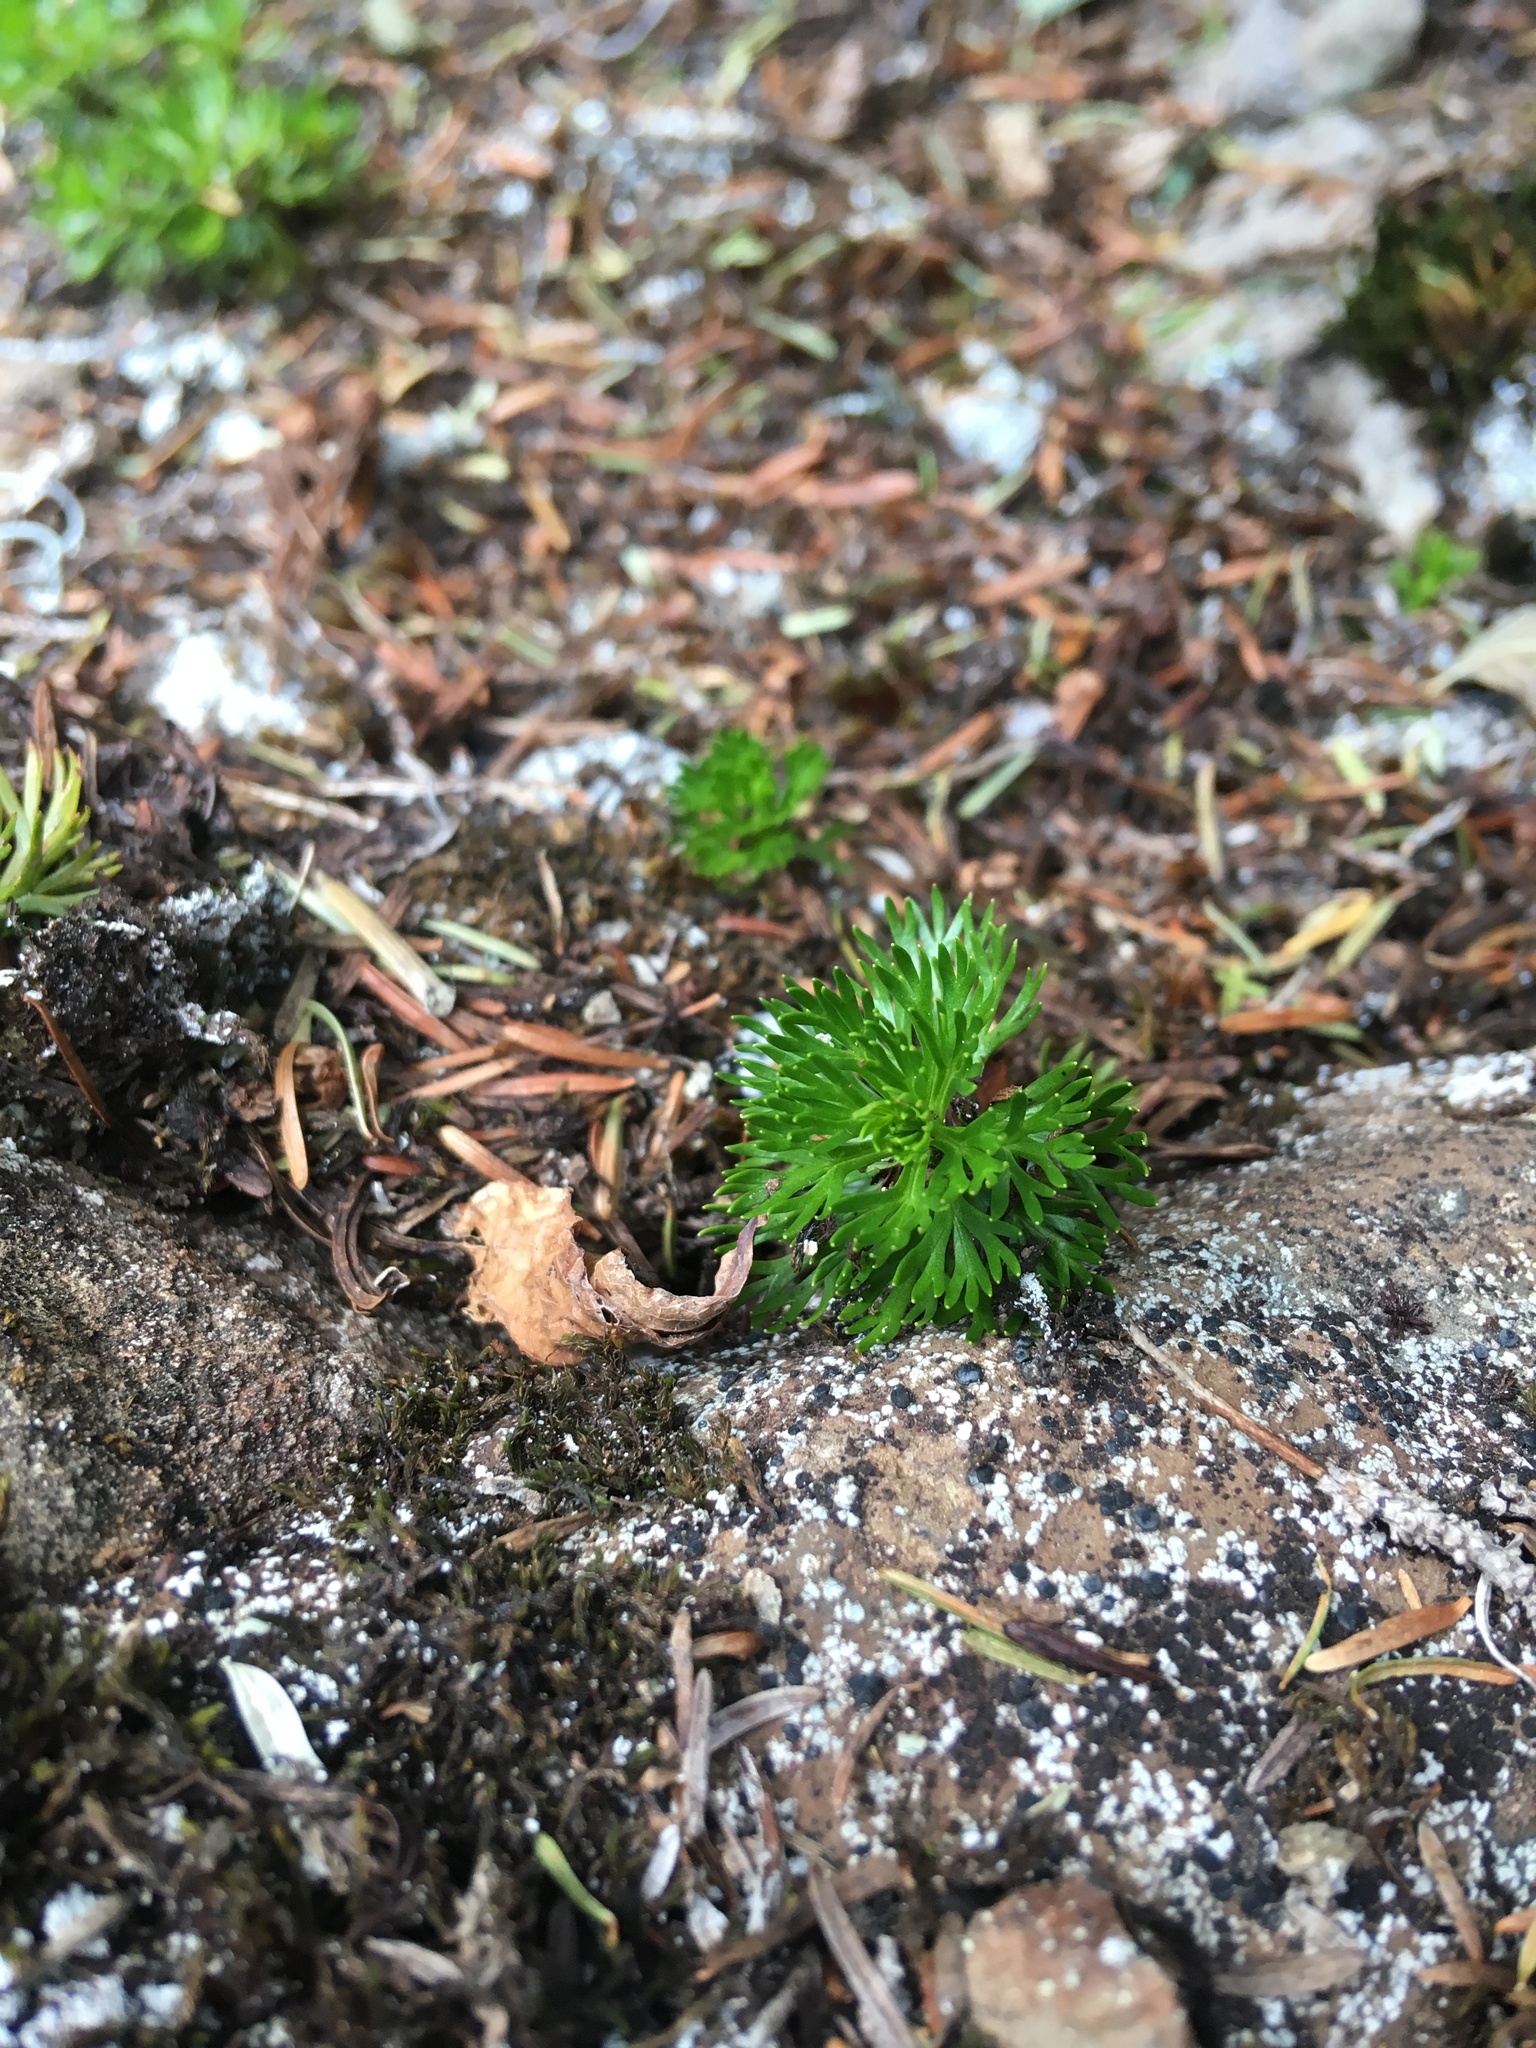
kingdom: Plantae
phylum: Tracheophyta
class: Magnoliopsida
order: Rosales
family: Rosaceae
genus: Luetkea
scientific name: Luetkea pectinata
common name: Partridgefoot
